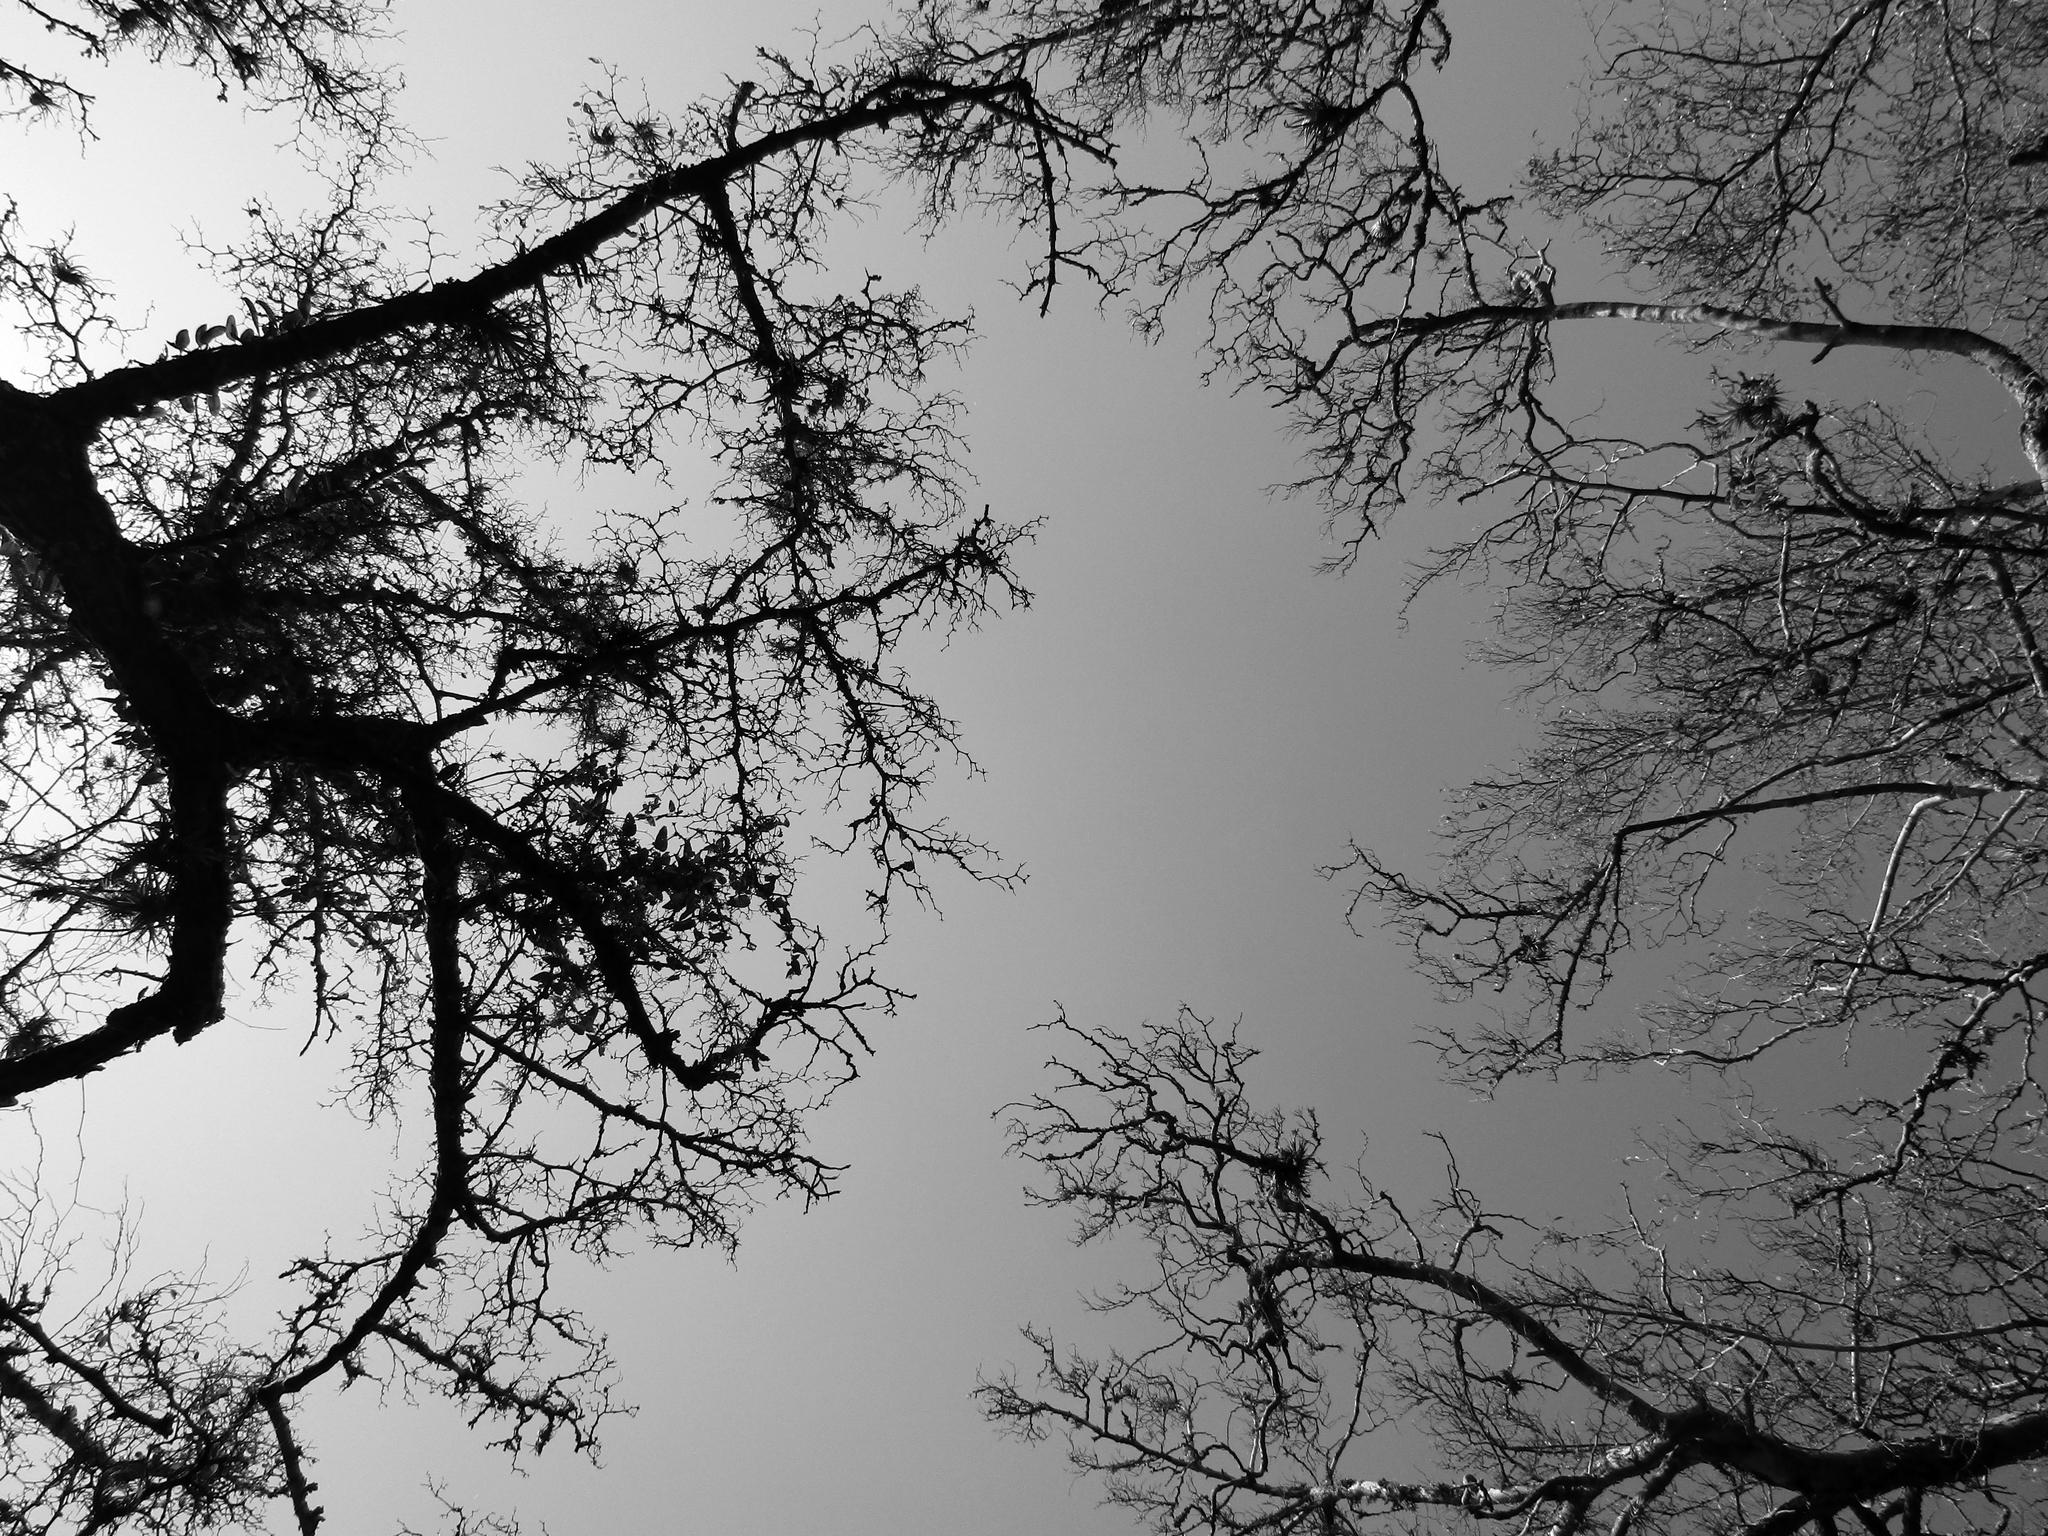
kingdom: Plantae
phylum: Tracheophyta
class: Magnoliopsida
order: Rosales
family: Cannabaceae
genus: Celtis
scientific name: Celtis tala
